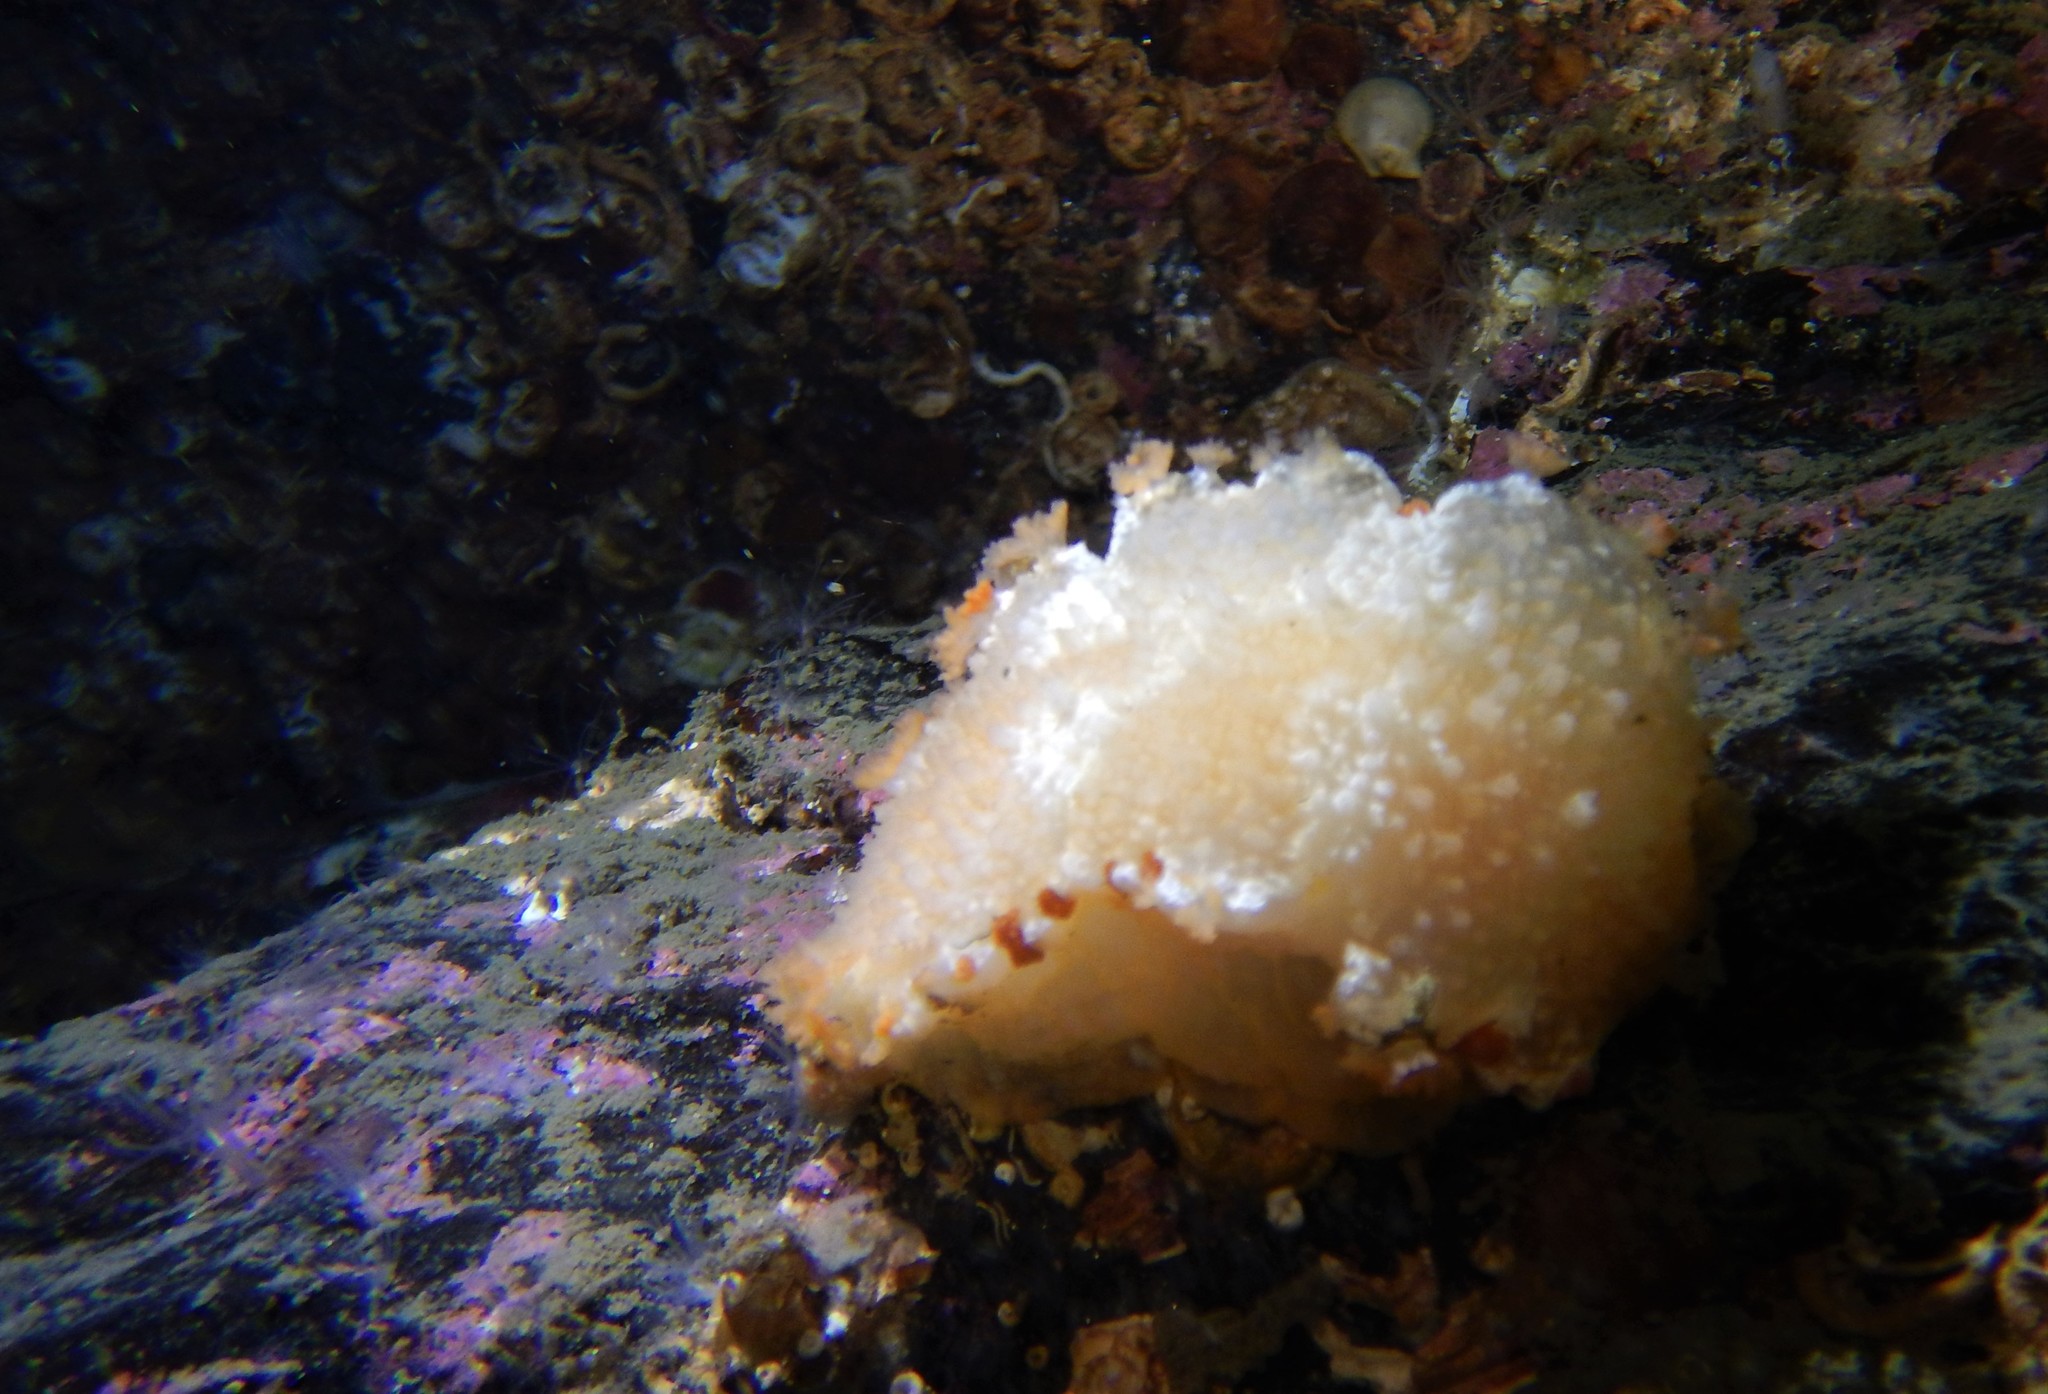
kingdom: Animalia
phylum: Mollusca
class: Gastropoda
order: Nudibranchia
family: Tritoniidae
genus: Tritonia
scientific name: Tritonia hombergii
